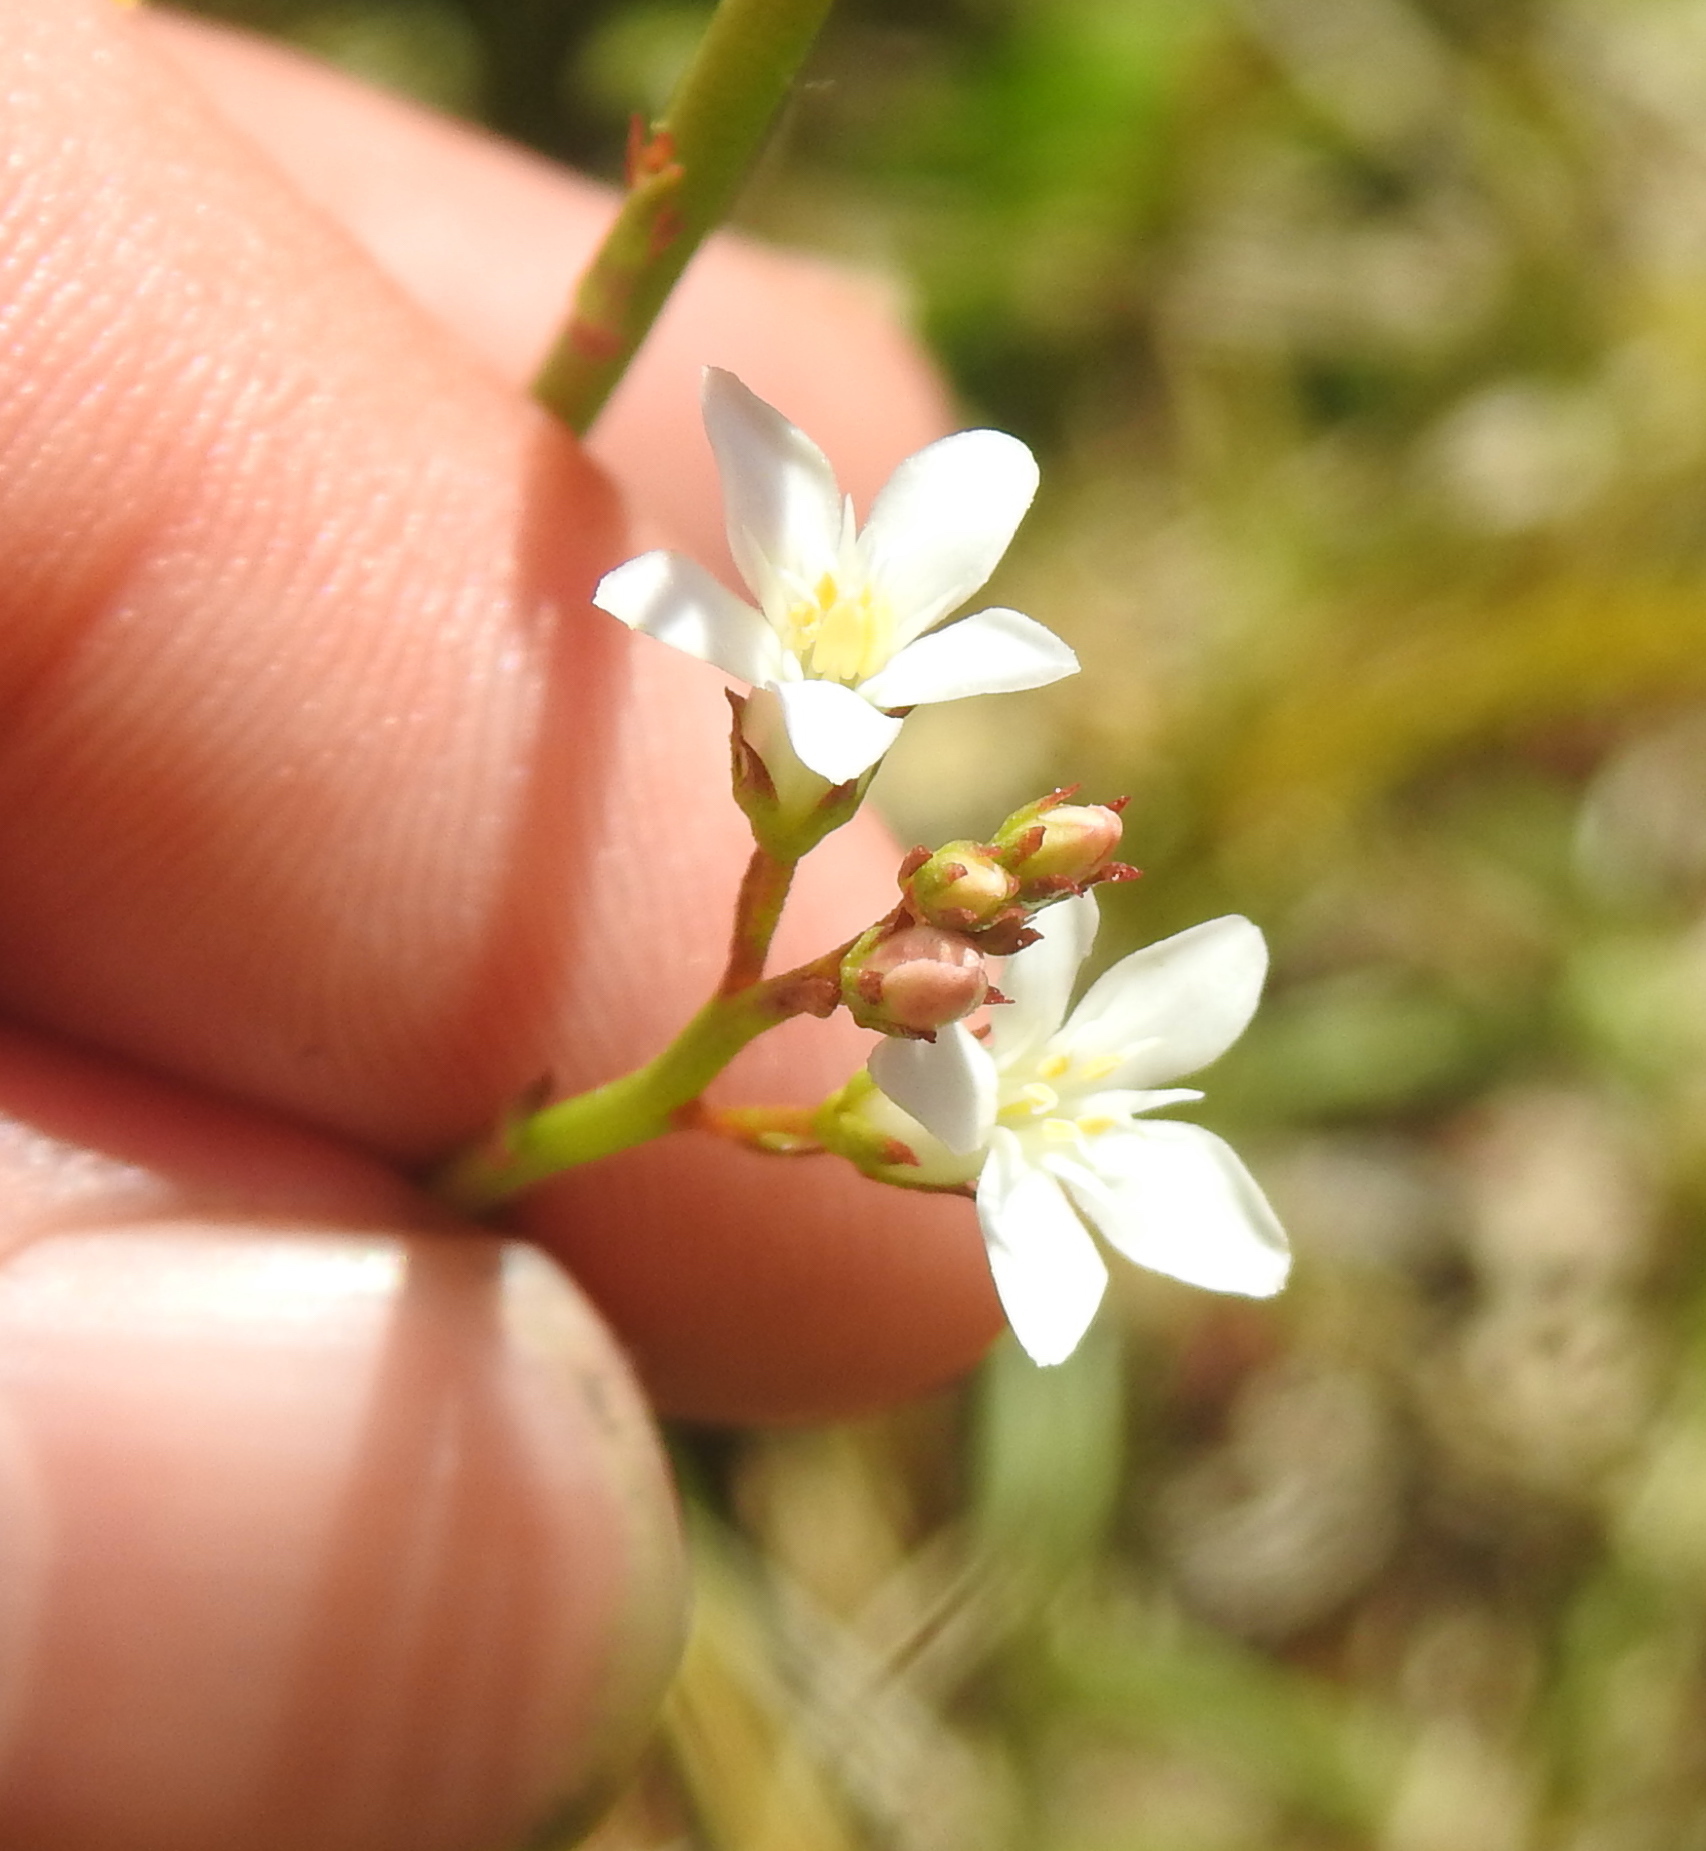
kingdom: Plantae
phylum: Tracheophyta
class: Magnoliopsida
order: Ericales
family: Primulaceae
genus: Samolus
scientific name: Samolus porosus
